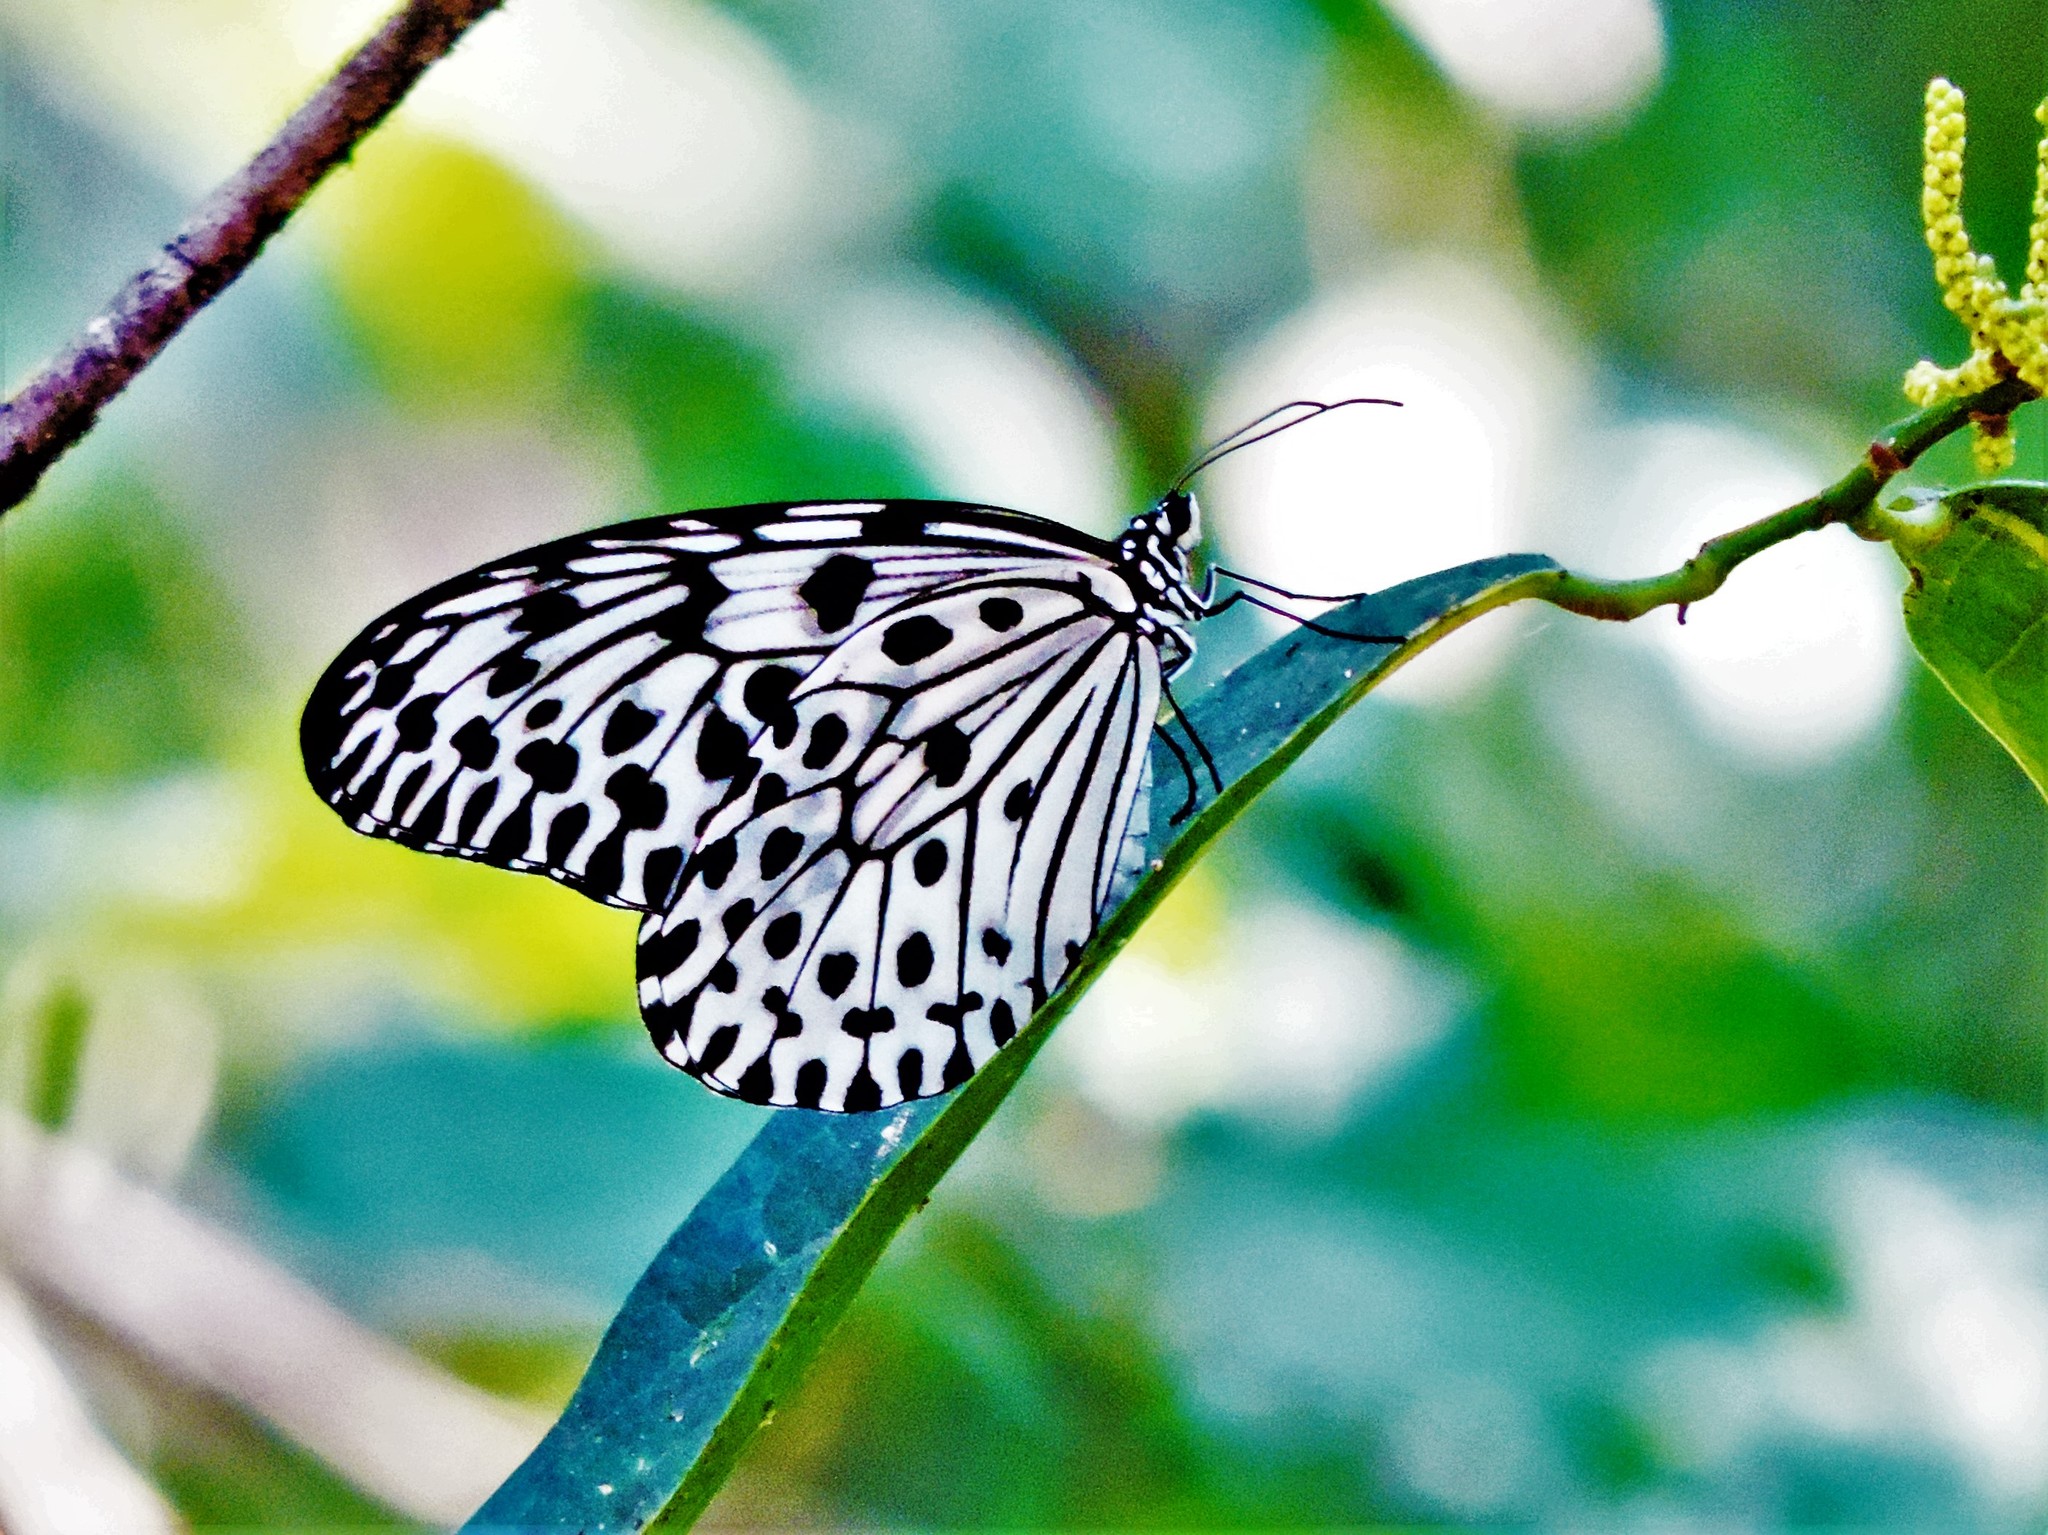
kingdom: Animalia
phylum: Arthropoda
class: Insecta
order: Lepidoptera
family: Nymphalidae
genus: Idea
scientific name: Idea malabarica
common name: Malabar tree-nymph
